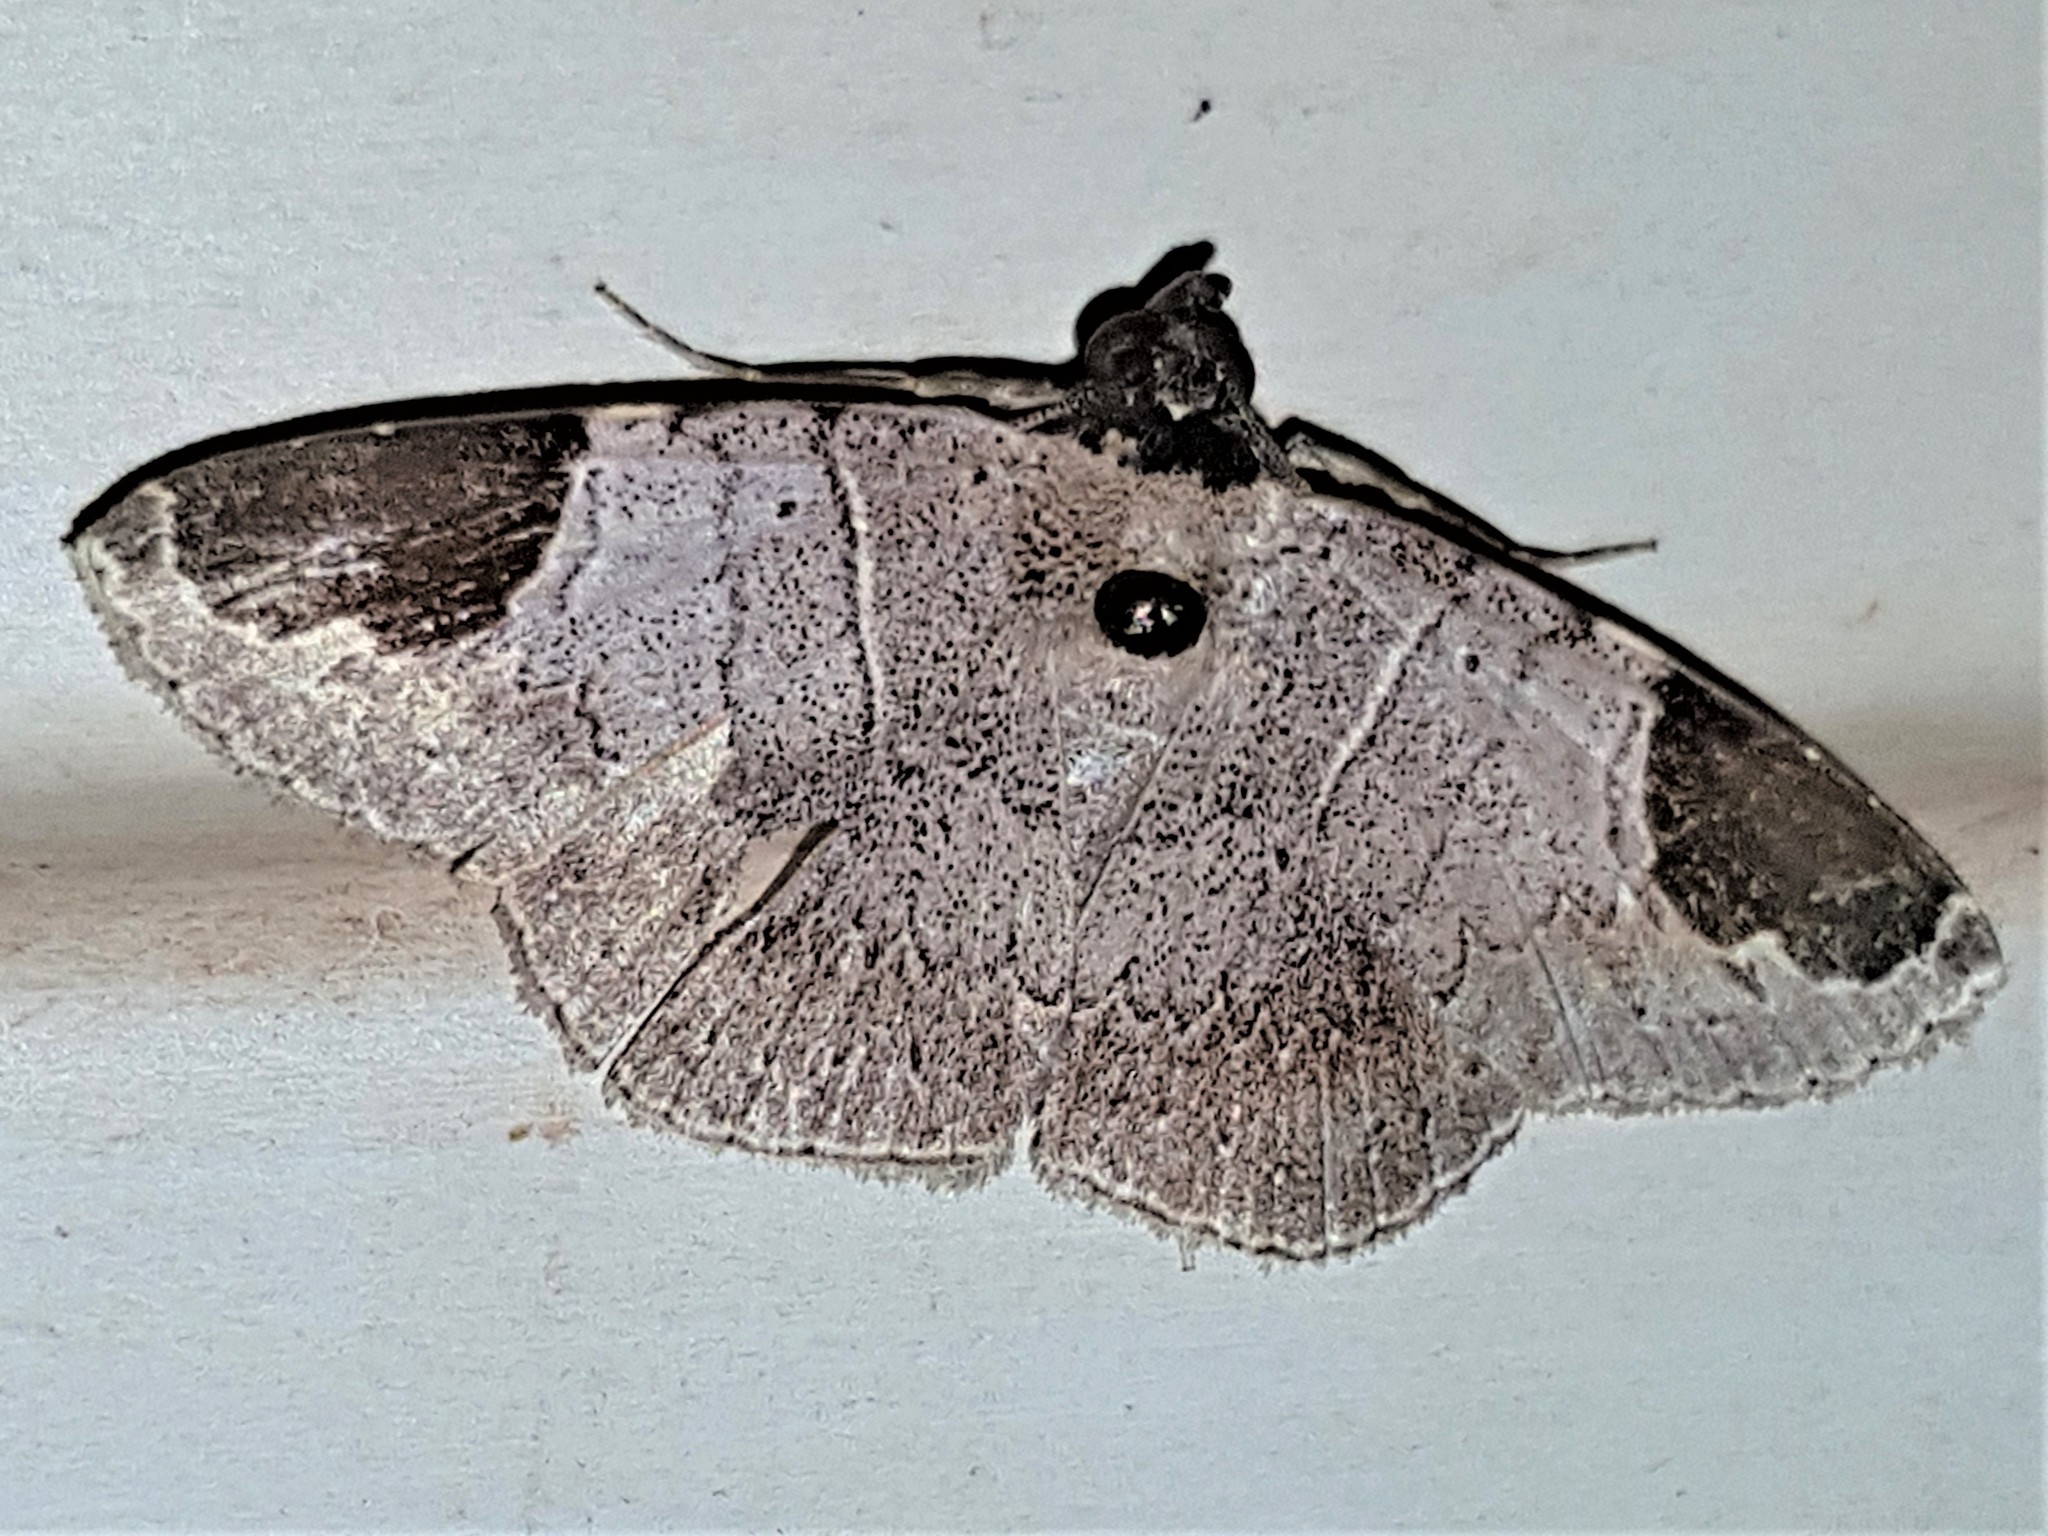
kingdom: Animalia
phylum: Arthropoda
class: Insecta
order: Lepidoptera
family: Erebidae
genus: Antiblemma
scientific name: Antiblemma linens
